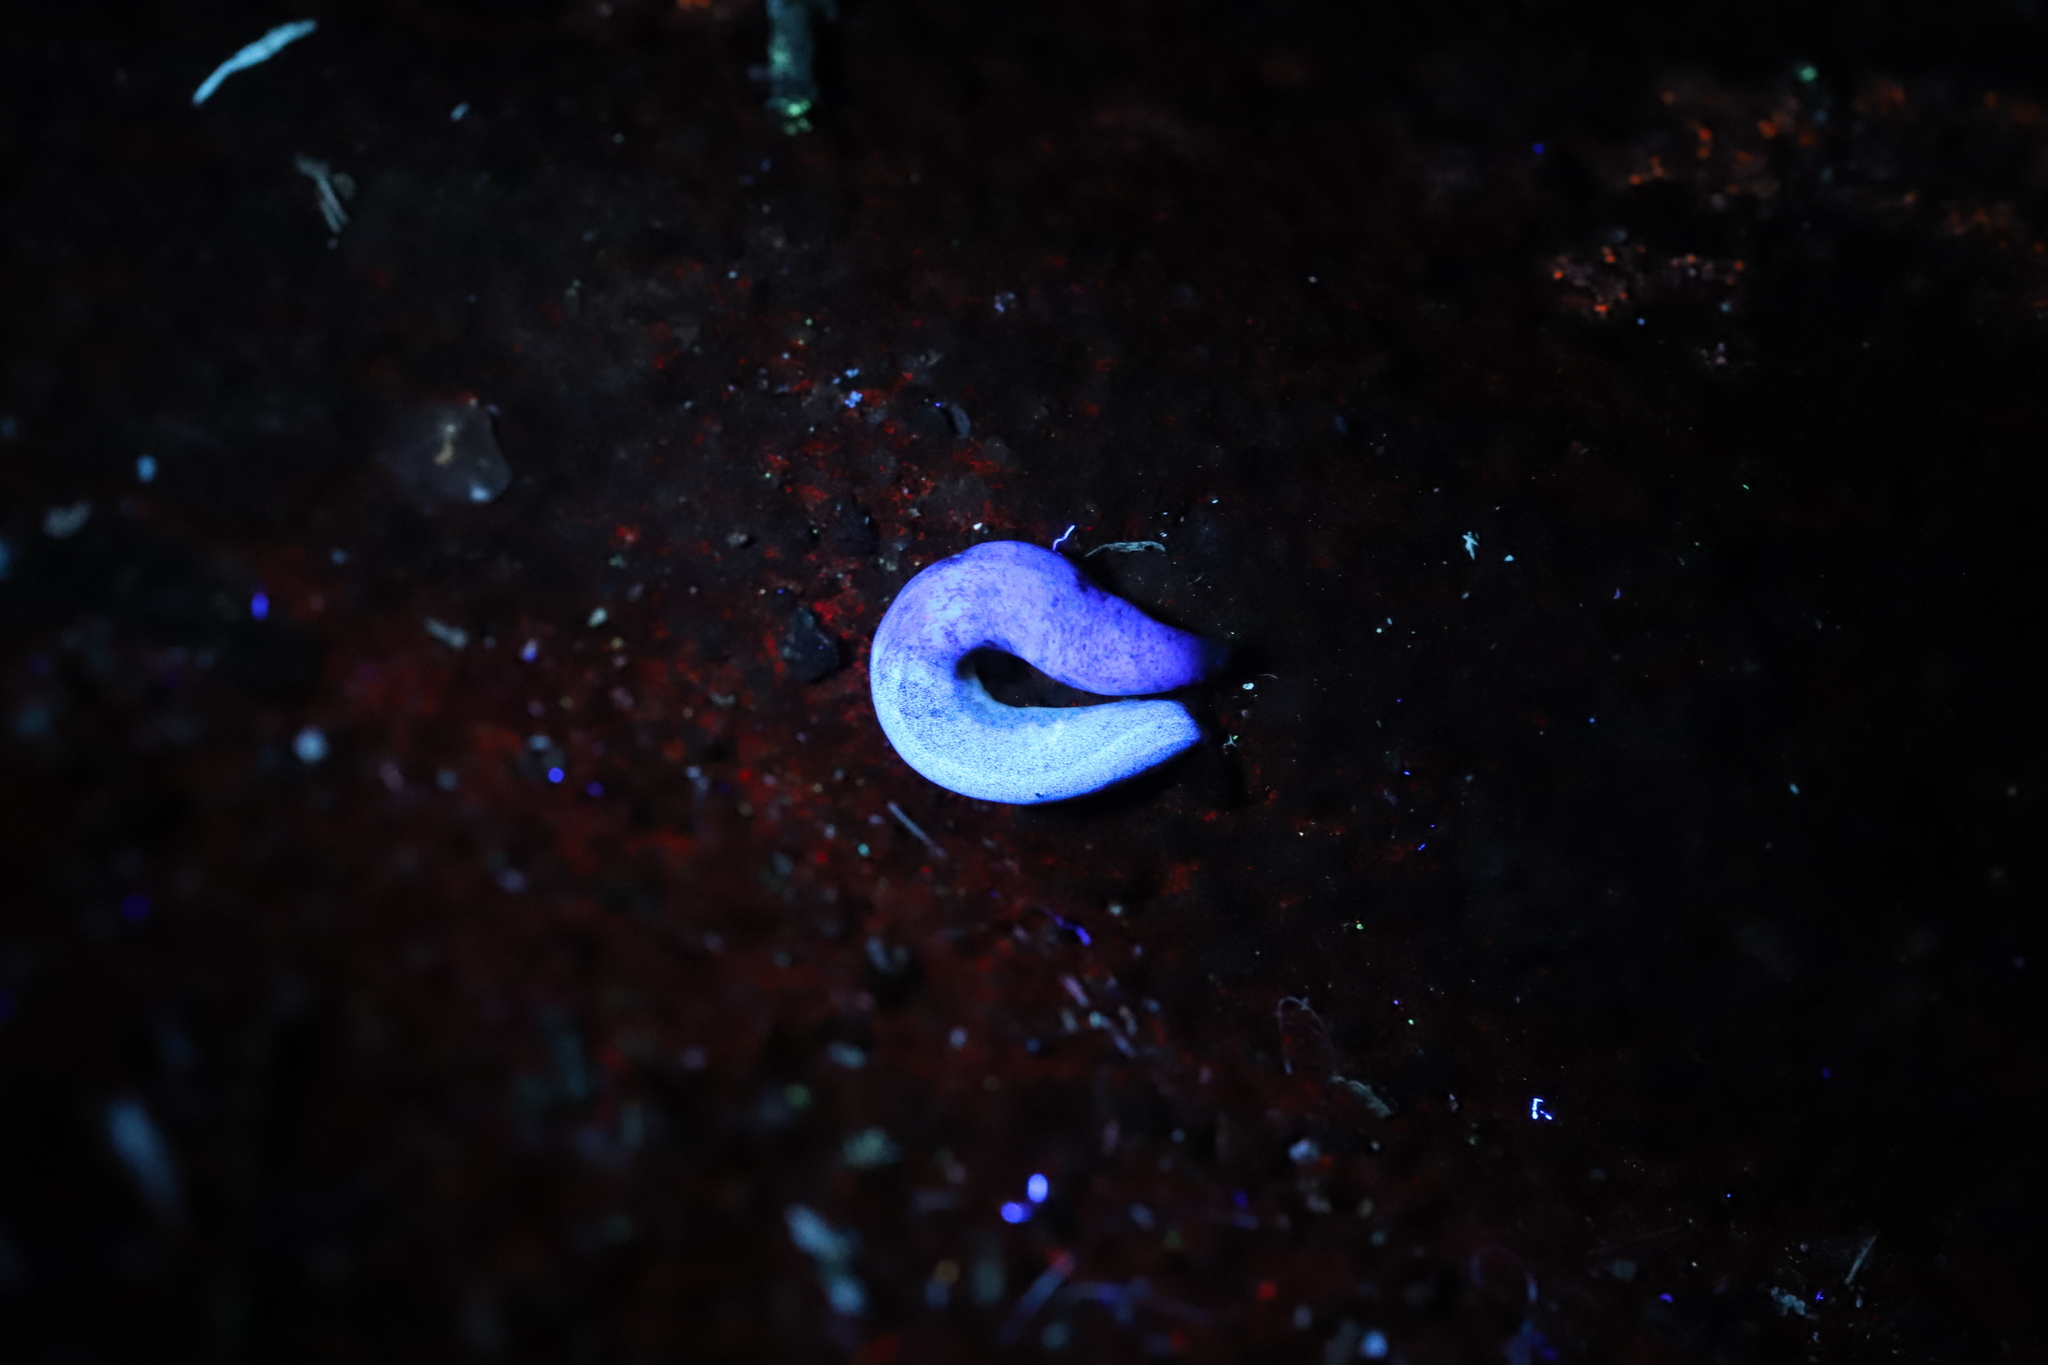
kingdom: Animalia
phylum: Platyhelminthes
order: Tricladida
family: Geoplanidae
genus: Caenoplana
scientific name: Caenoplana munda
